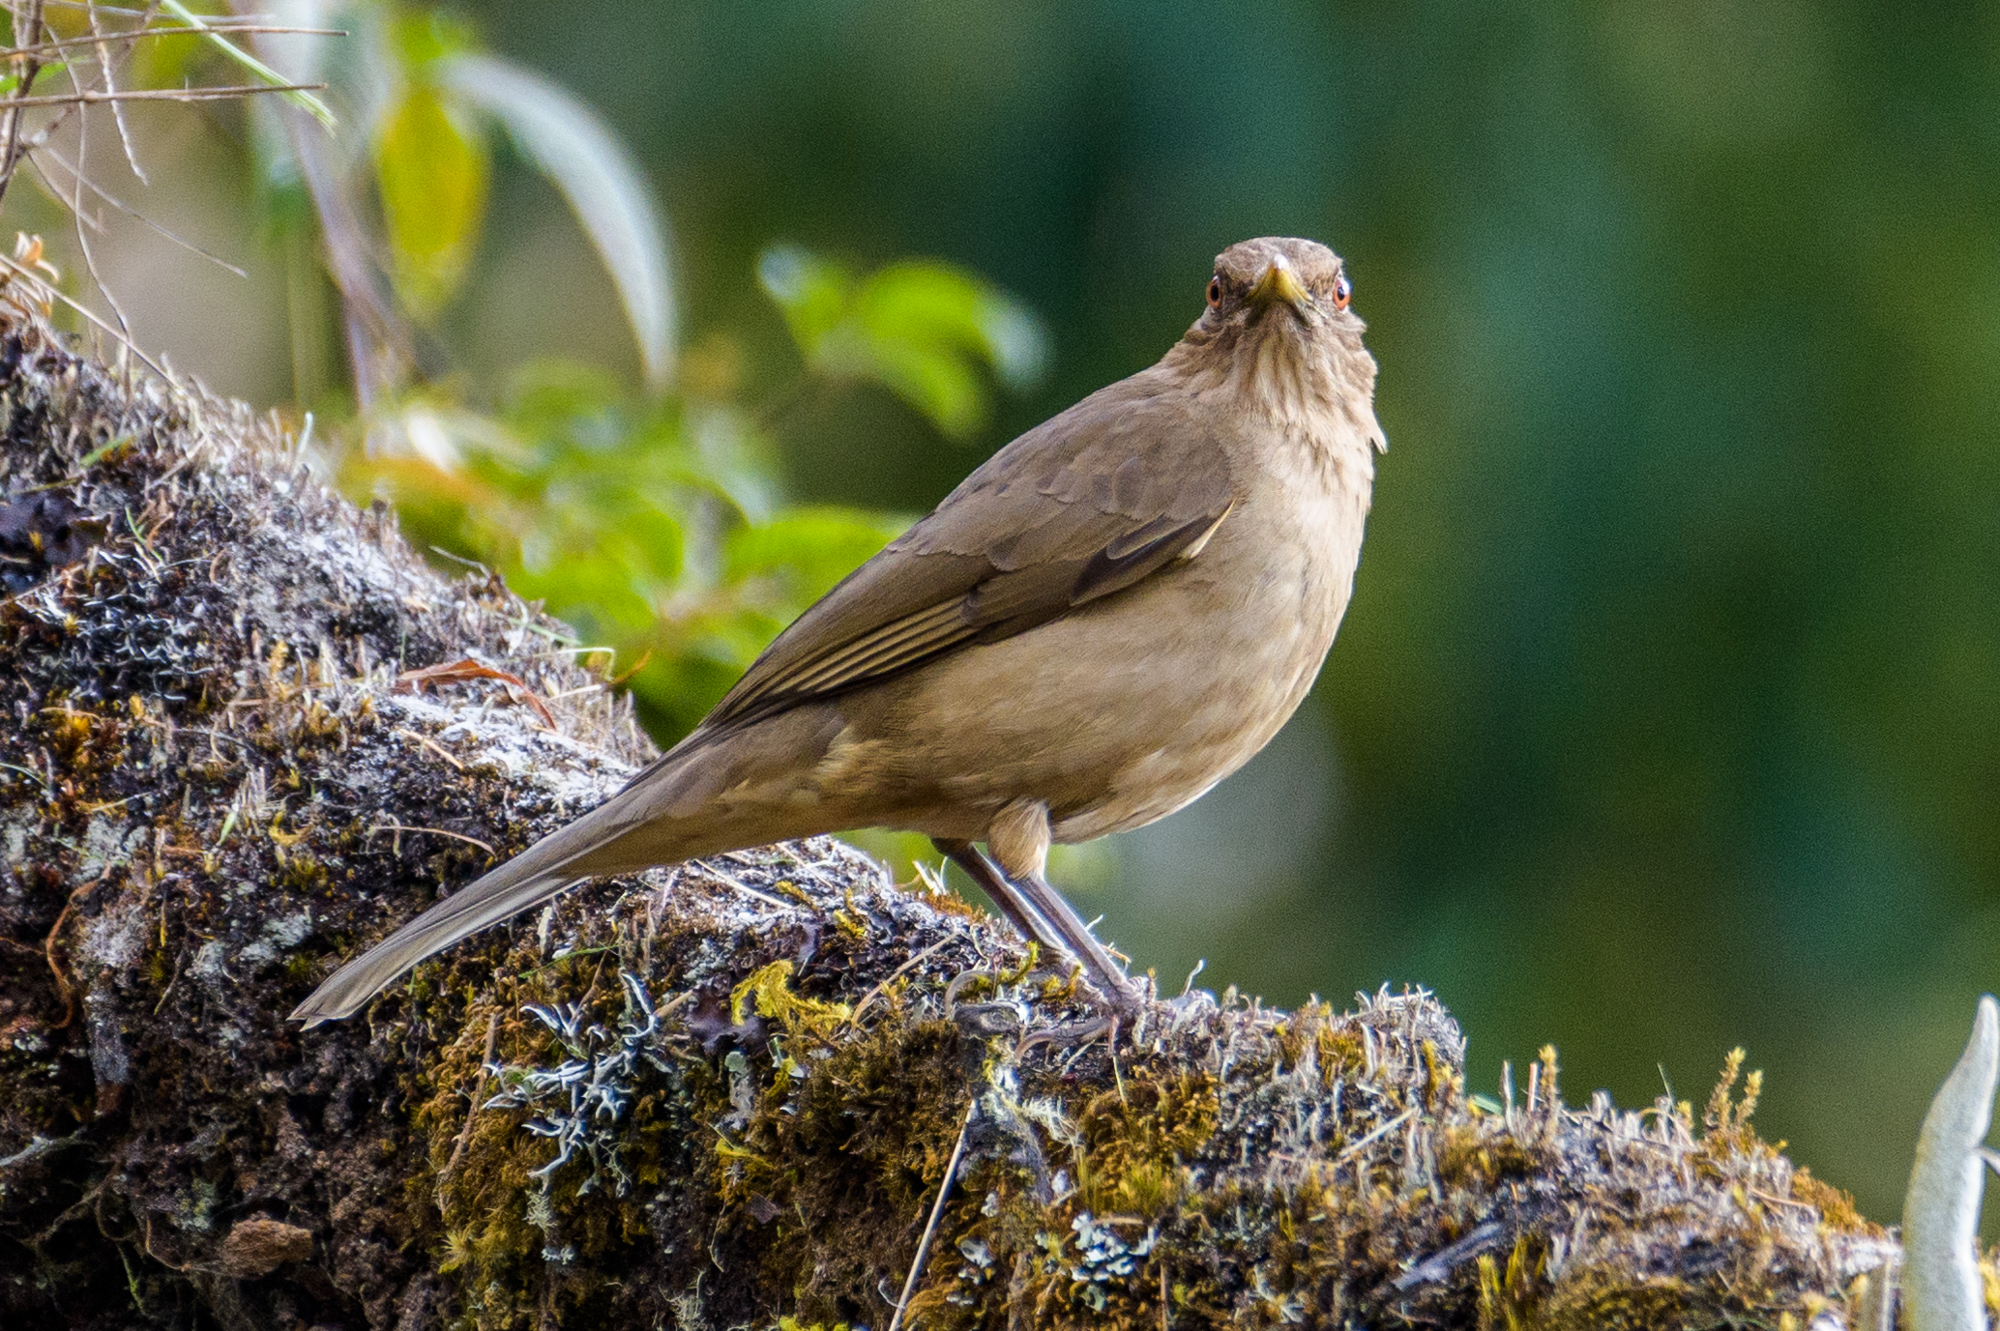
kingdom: Animalia
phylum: Chordata
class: Aves
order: Passeriformes
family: Turdidae
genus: Turdus
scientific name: Turdus grayi
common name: Clay-colored thrush
